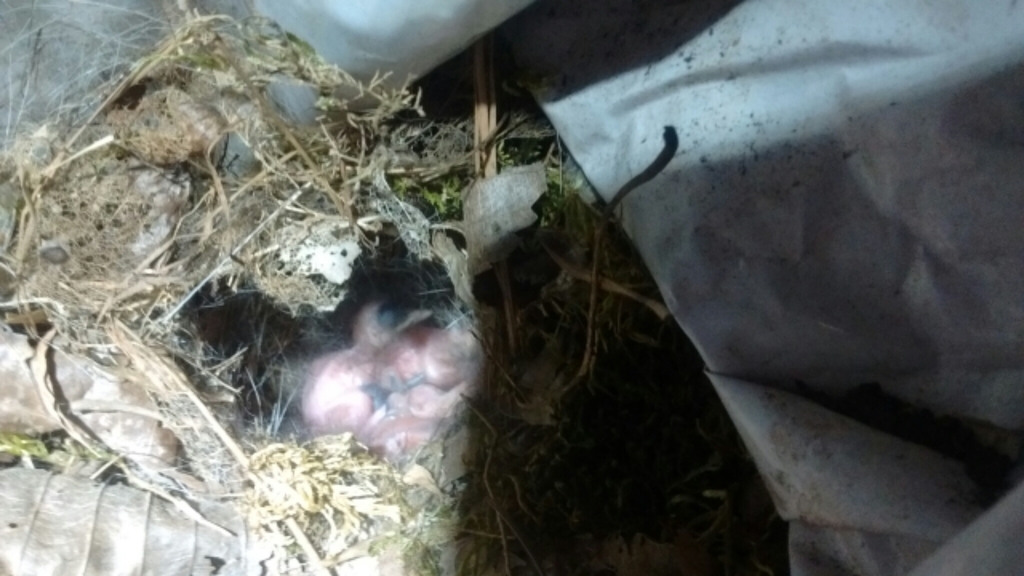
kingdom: Animalia
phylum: Chordata
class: Aves
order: Passeriformes
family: Troglodytidae
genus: Thryothorus
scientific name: Thryothorus ludovicianus
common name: Carolina wren
